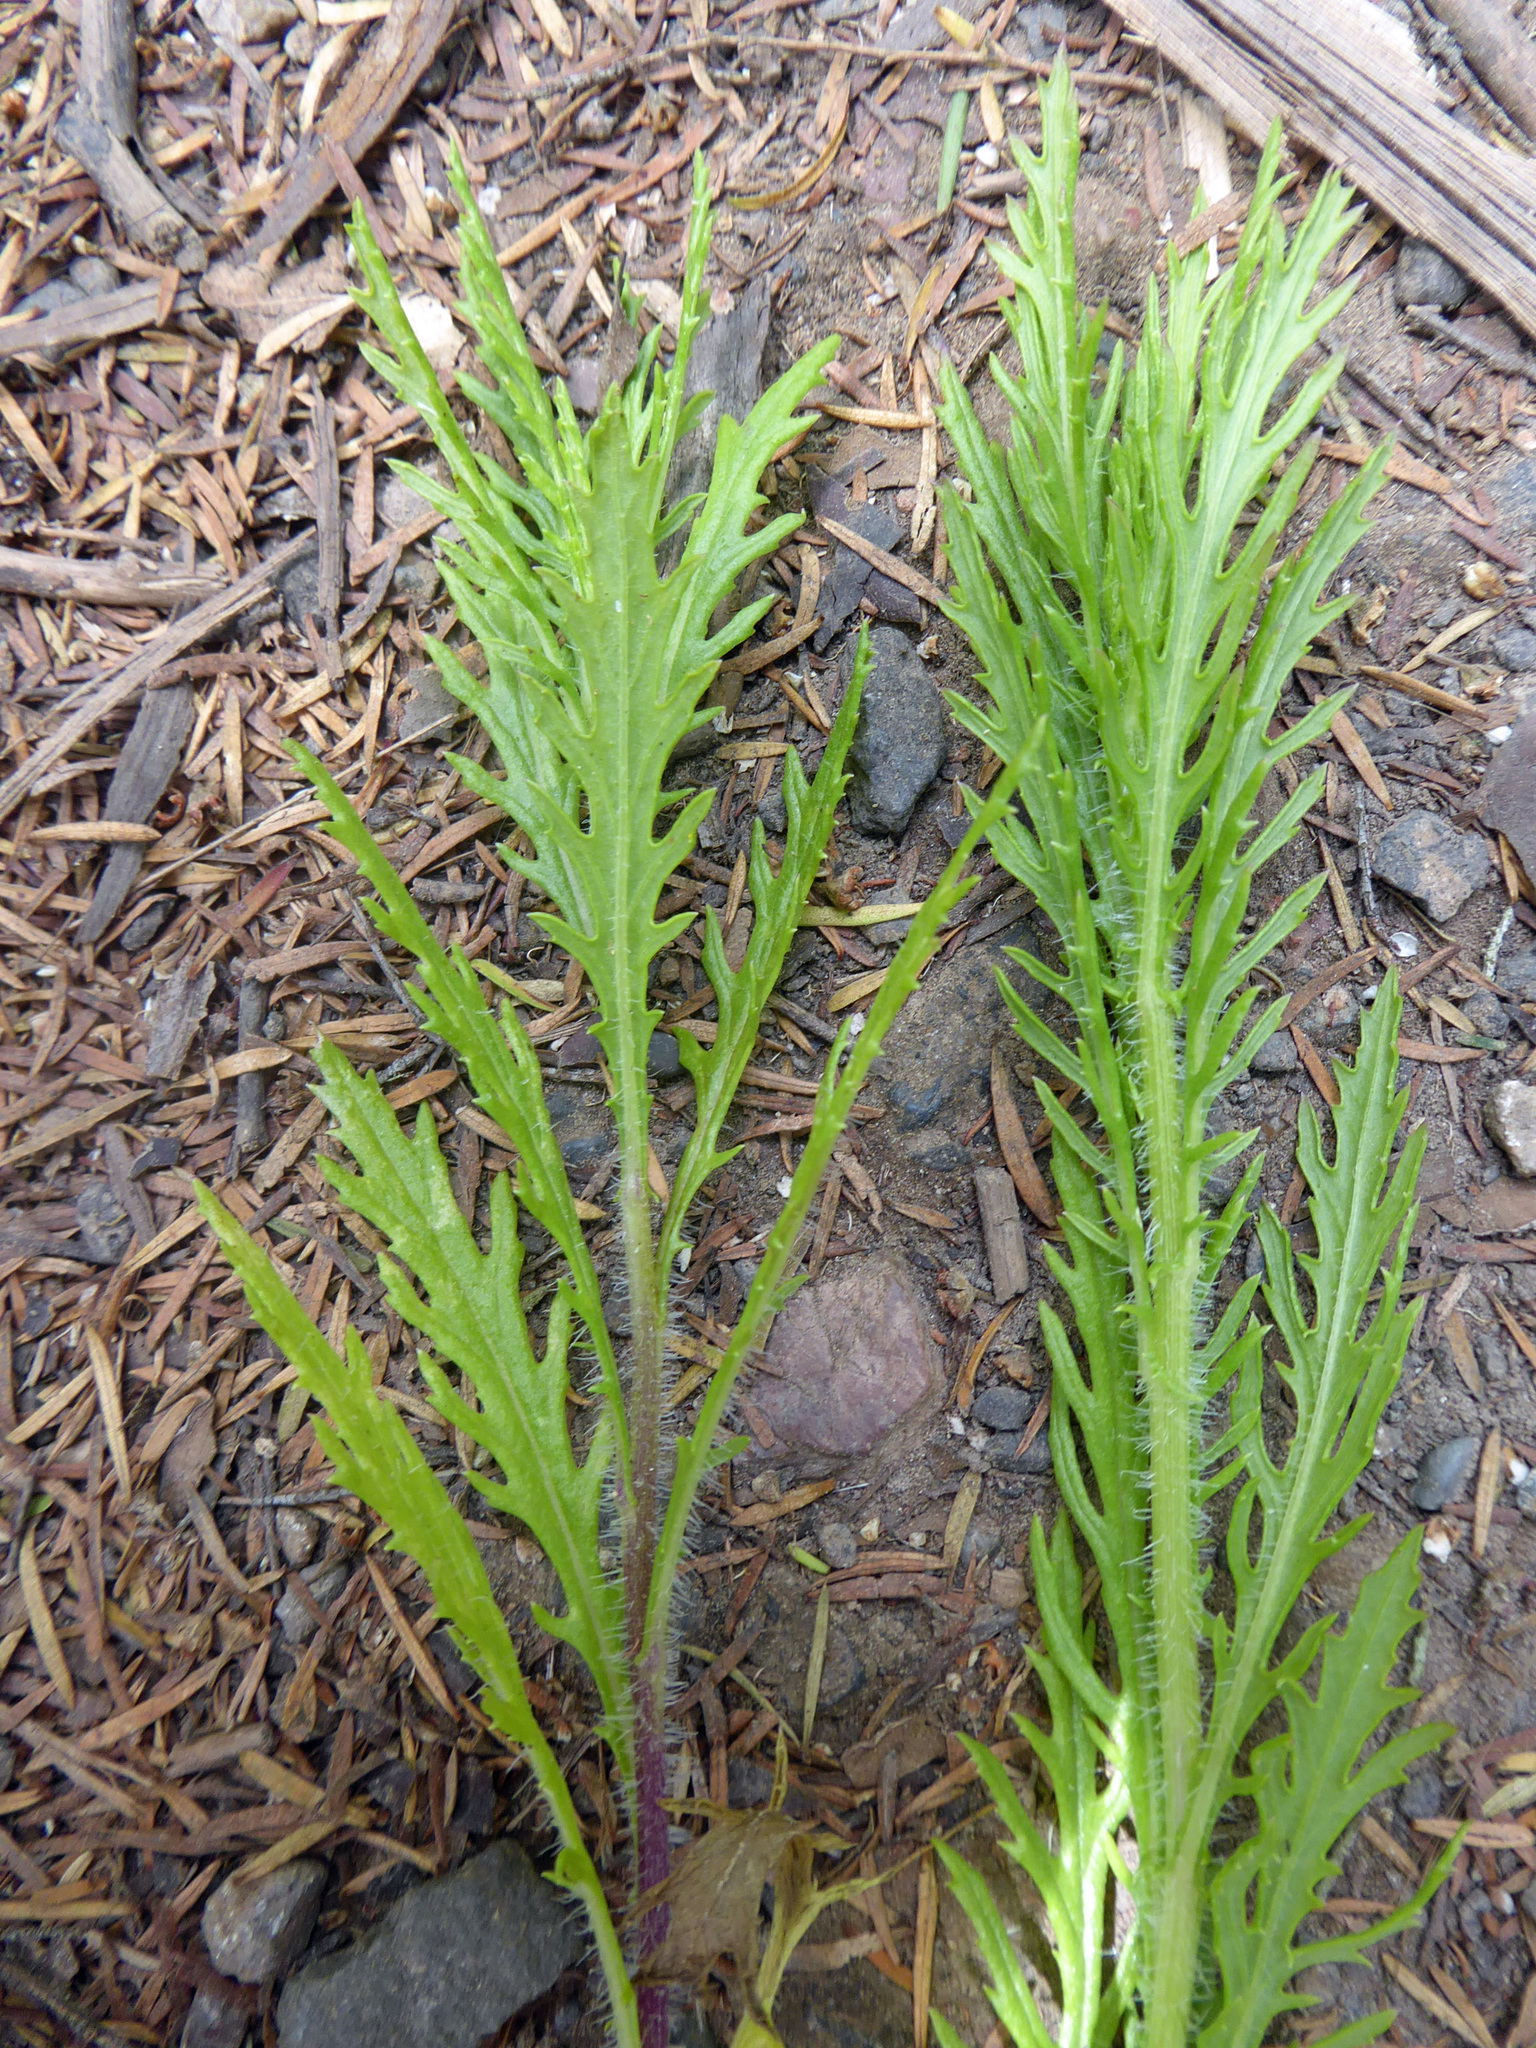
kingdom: Plantae
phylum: Tracheophyta
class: Magnoliopsida
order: Asterales
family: Asteraceae
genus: Senecio
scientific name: Senecio esleri
